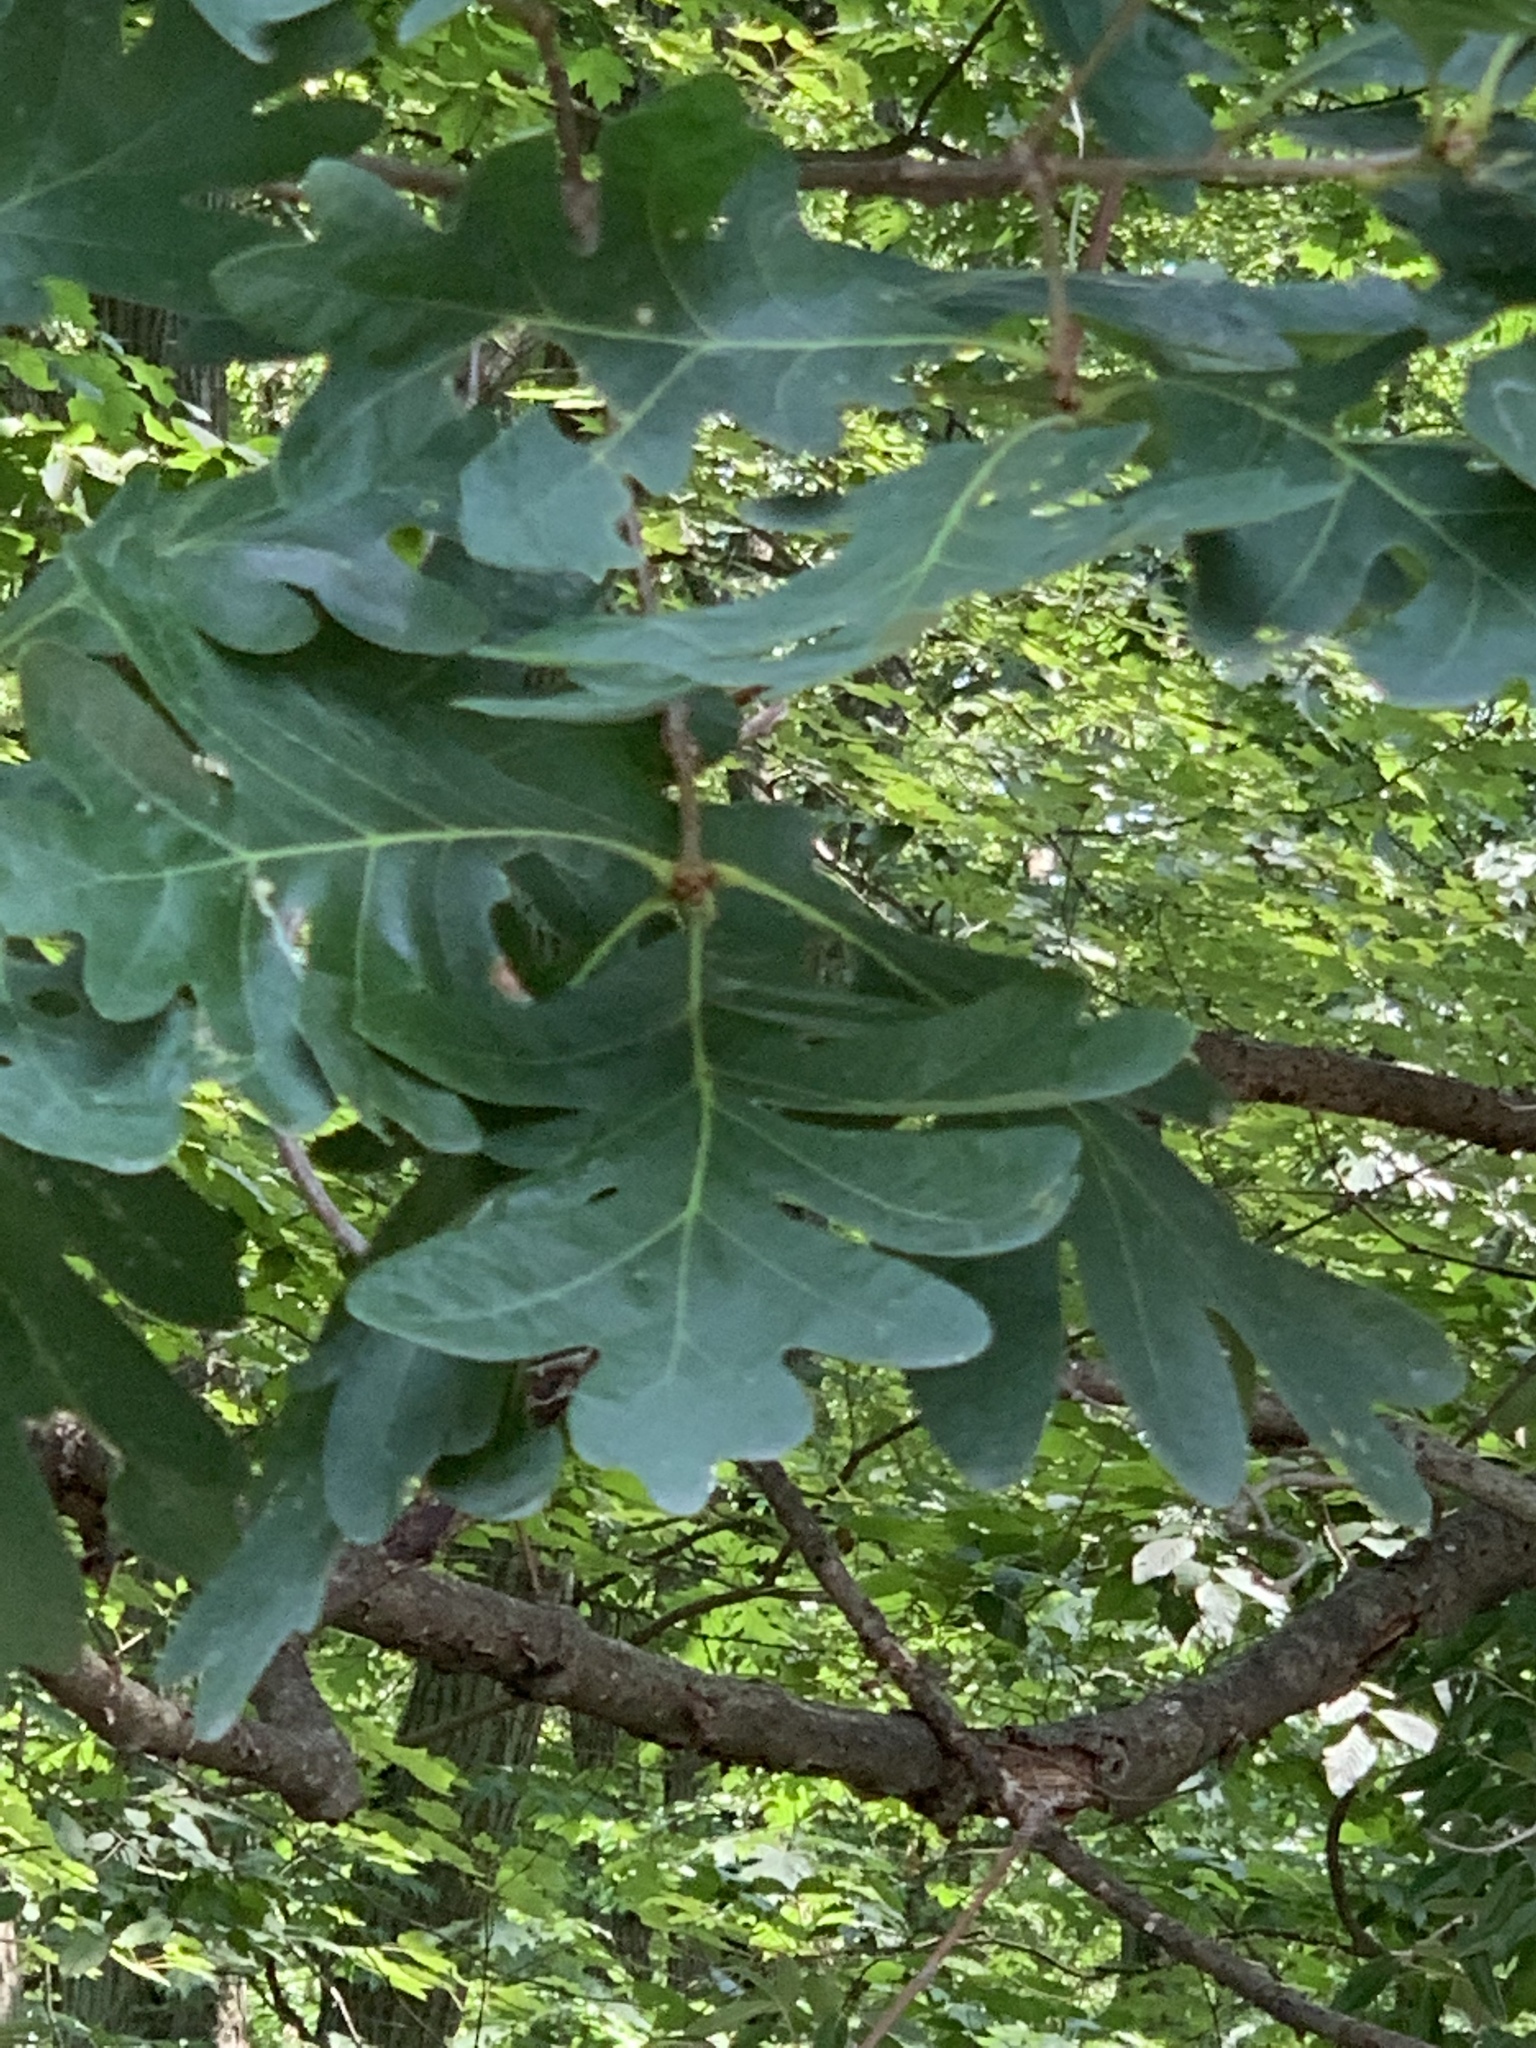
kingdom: Plantae
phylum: Tracheophyta
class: Magnoliopsida
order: Fagales
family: Fagaceae
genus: Quercus
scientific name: Quercus alba
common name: White oak
